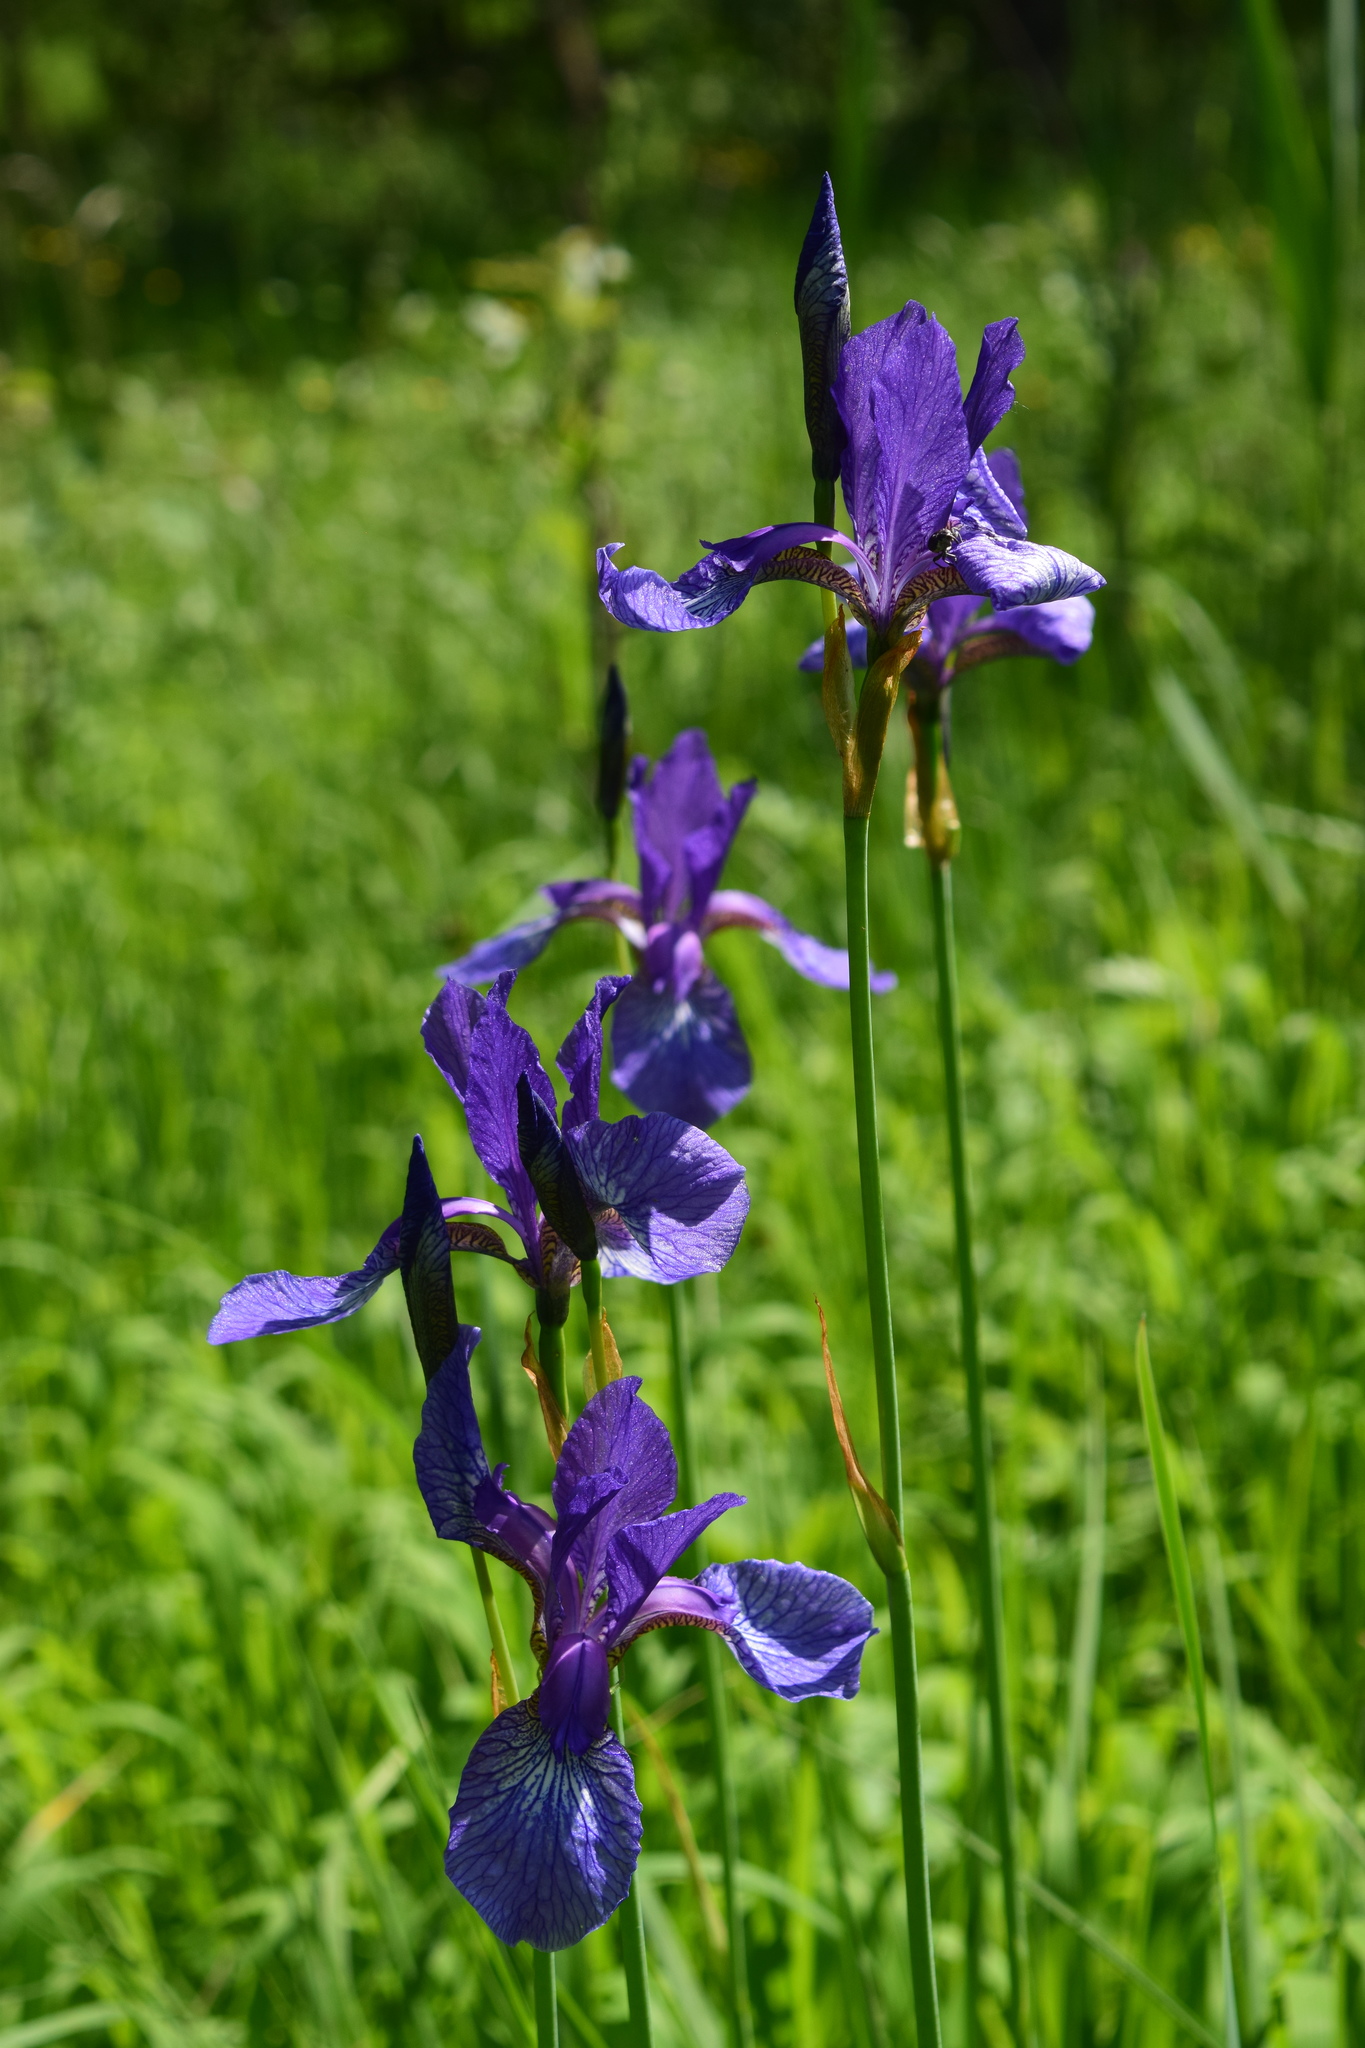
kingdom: Plantae
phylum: Tracheophyta
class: Liliopsida
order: Asparagales
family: Iridaceae
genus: Iris
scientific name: Iris sibirica
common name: Siberian iris
